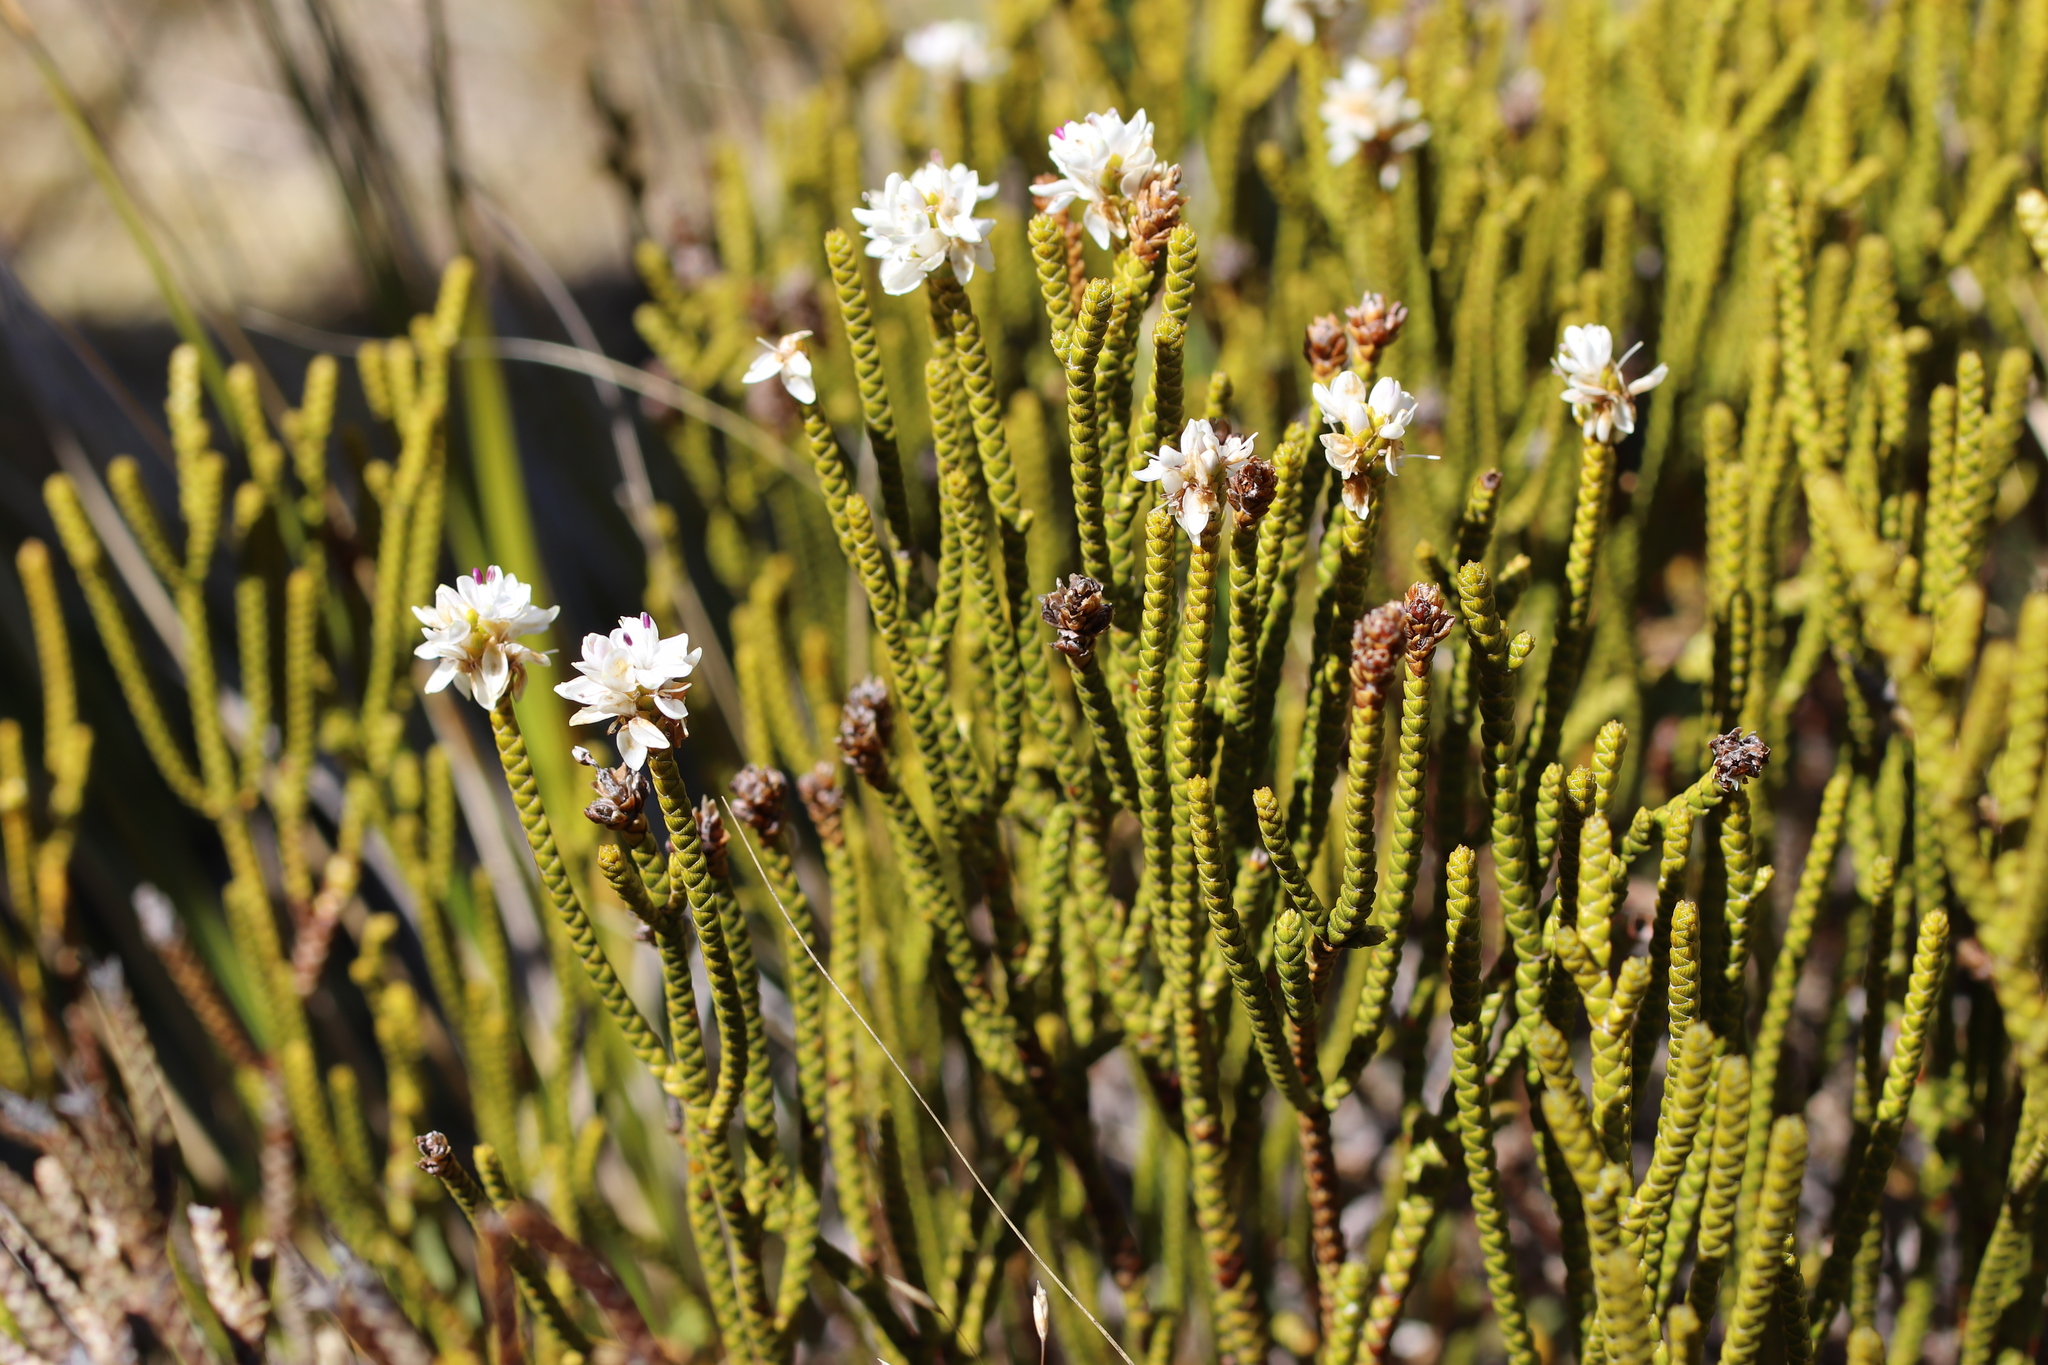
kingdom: Plantae
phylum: Tracheophyta
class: Magnoliopsida
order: Lamiales
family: Plantaginaceae
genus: Veronica
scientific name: Veronica lycopodioides
